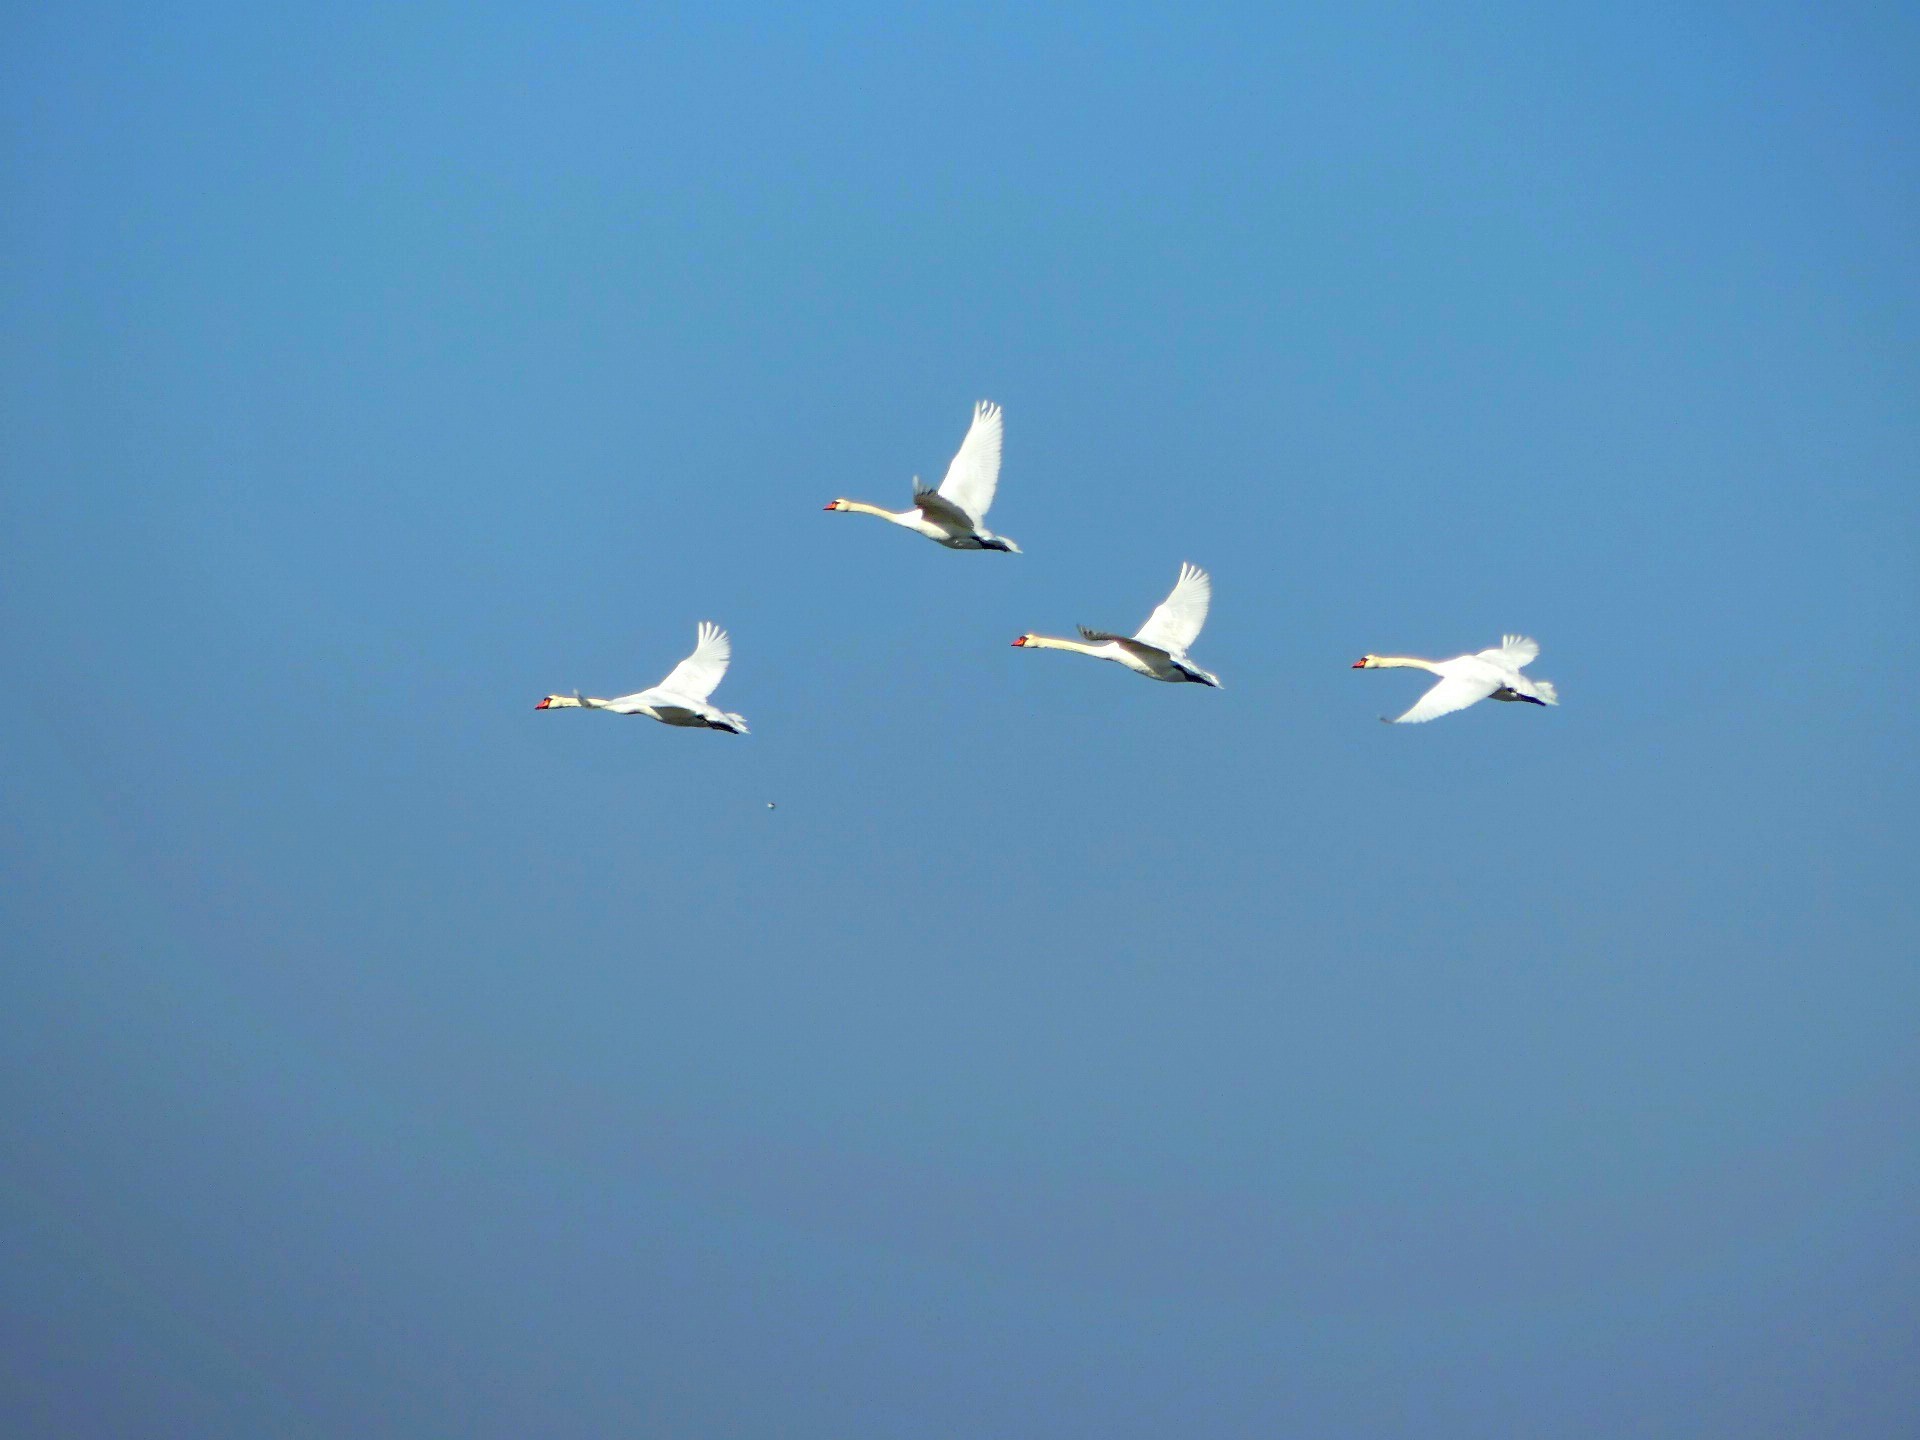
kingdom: Animalia
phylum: Chordata
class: Aves
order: Anseriformes
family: Anatidae
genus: Cygnus
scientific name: Cygnus olor
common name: Mute swan
